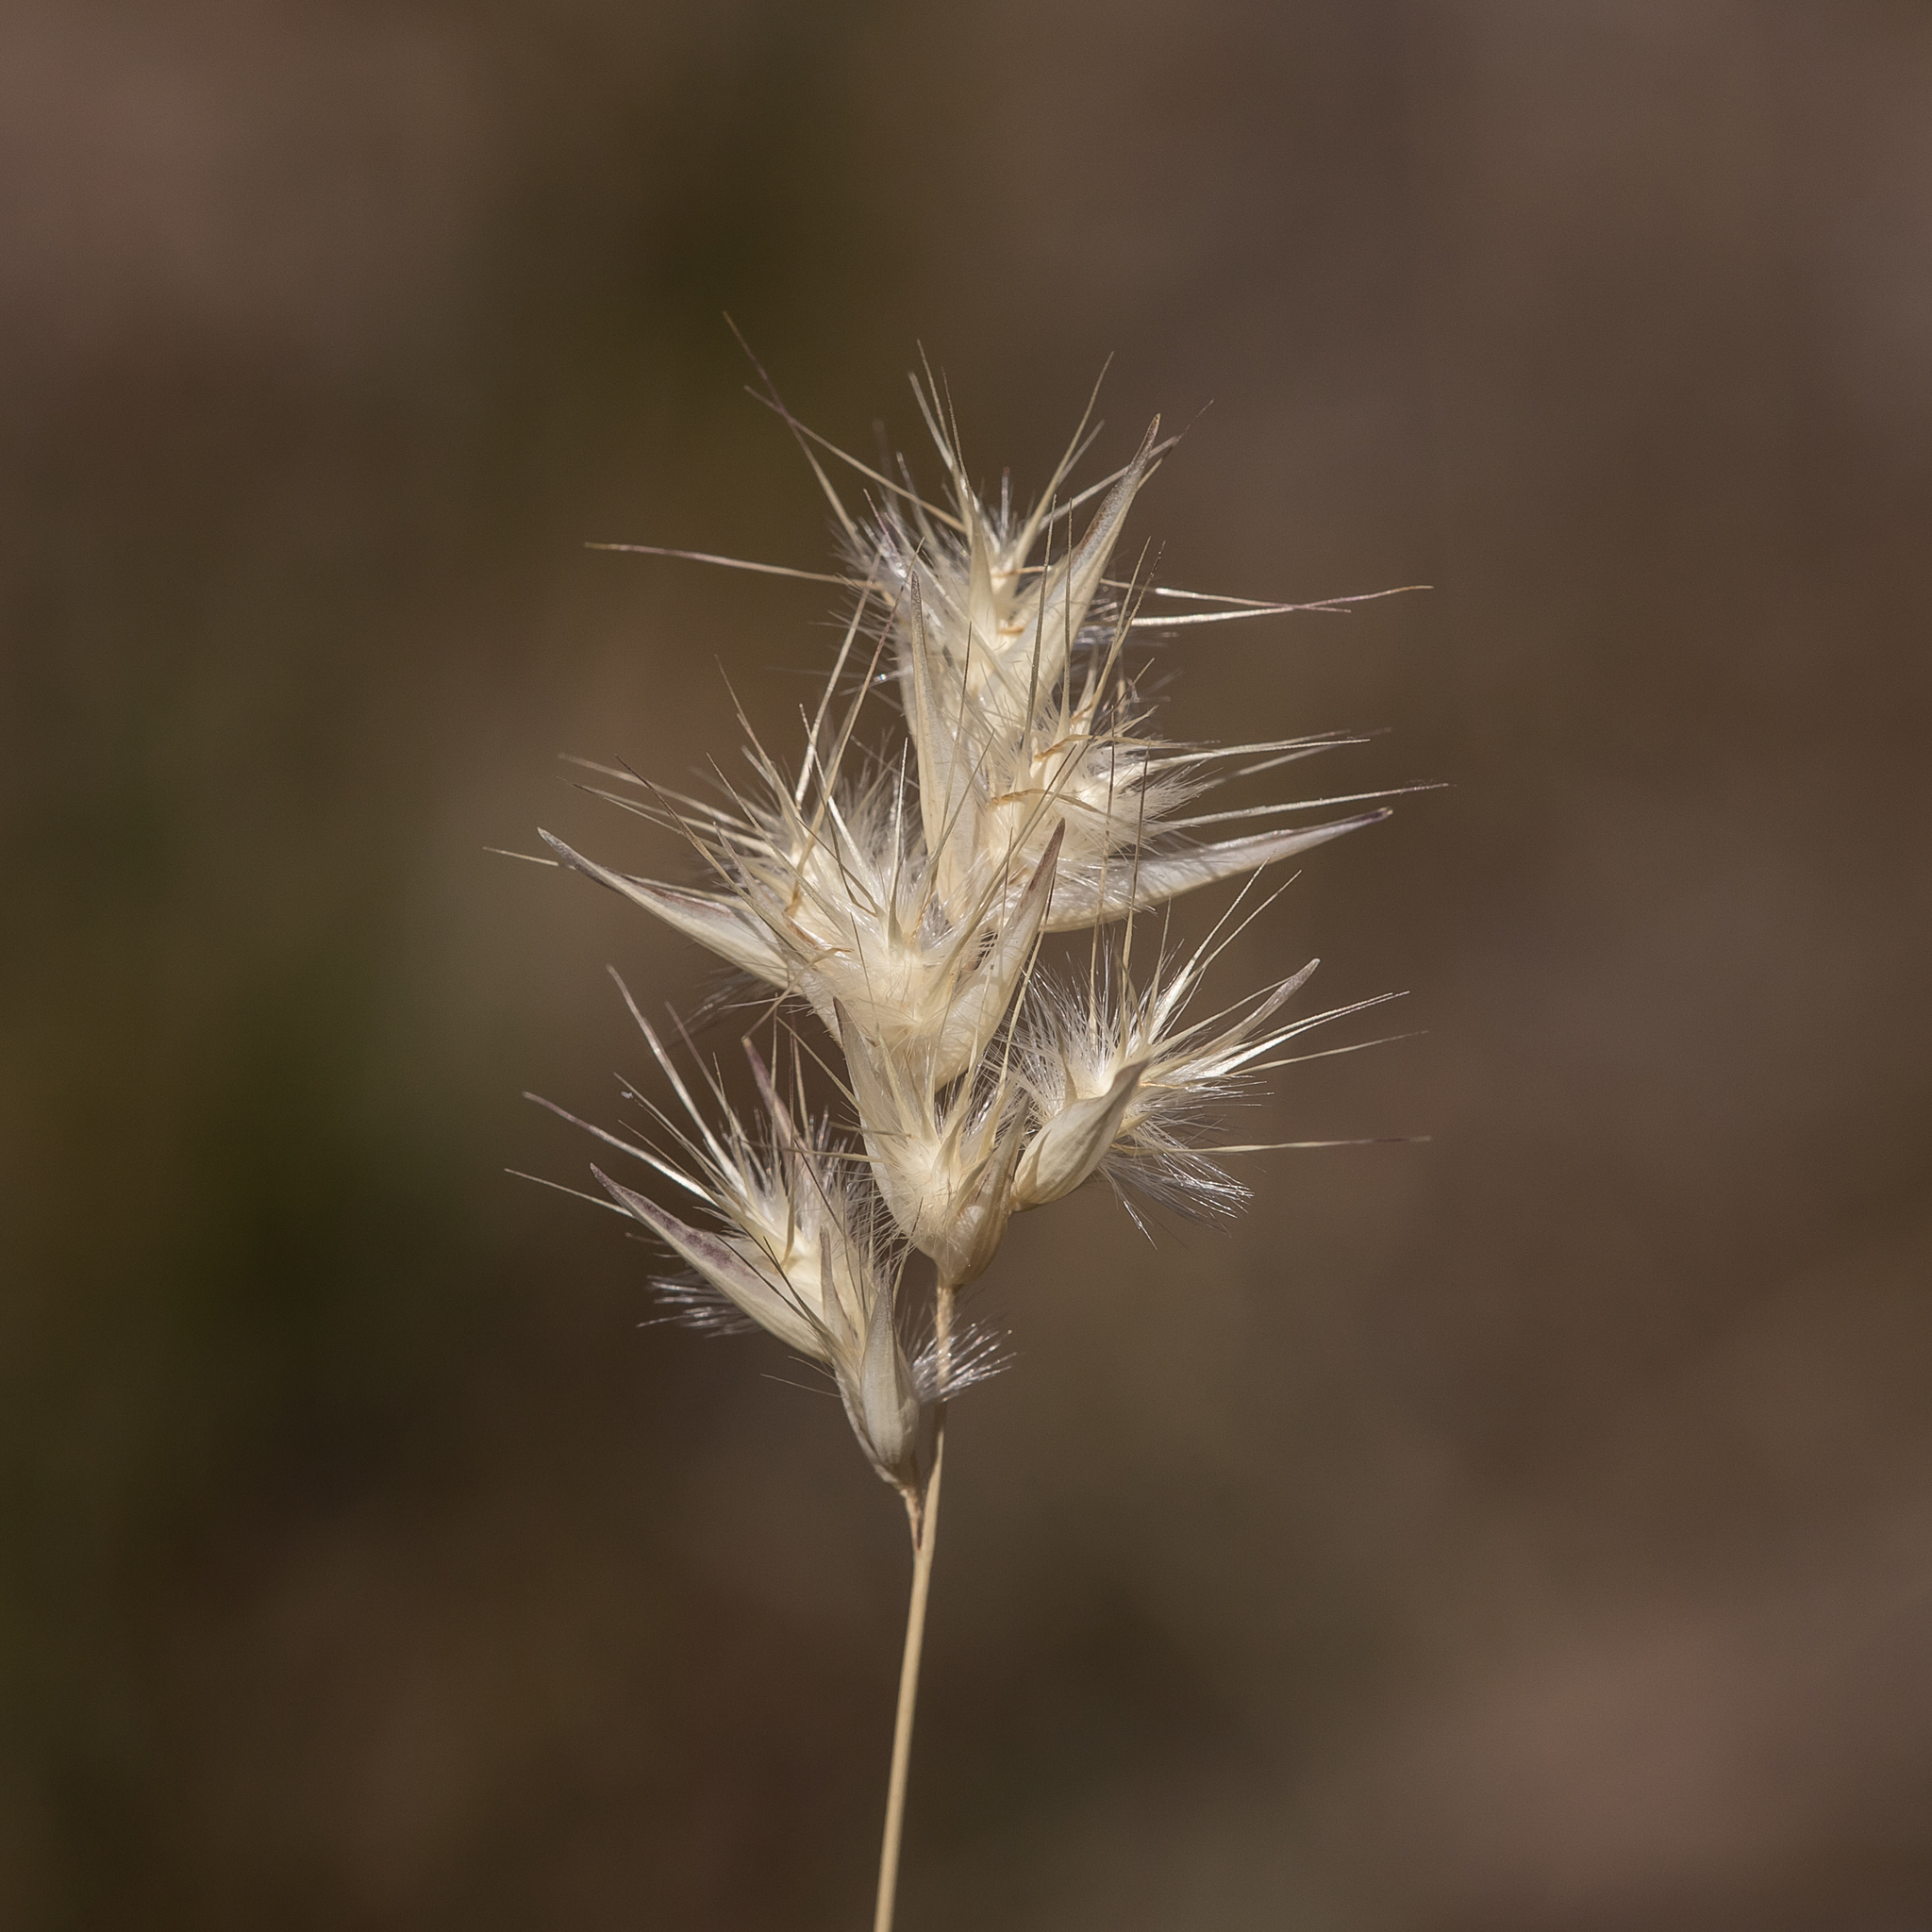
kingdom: Plantae
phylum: Tracheophyta
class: Liliopsida
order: Poales
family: Poaceae
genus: Rytidosperma
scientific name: Rytidosperma erianthum
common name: Hill wallaby grass
